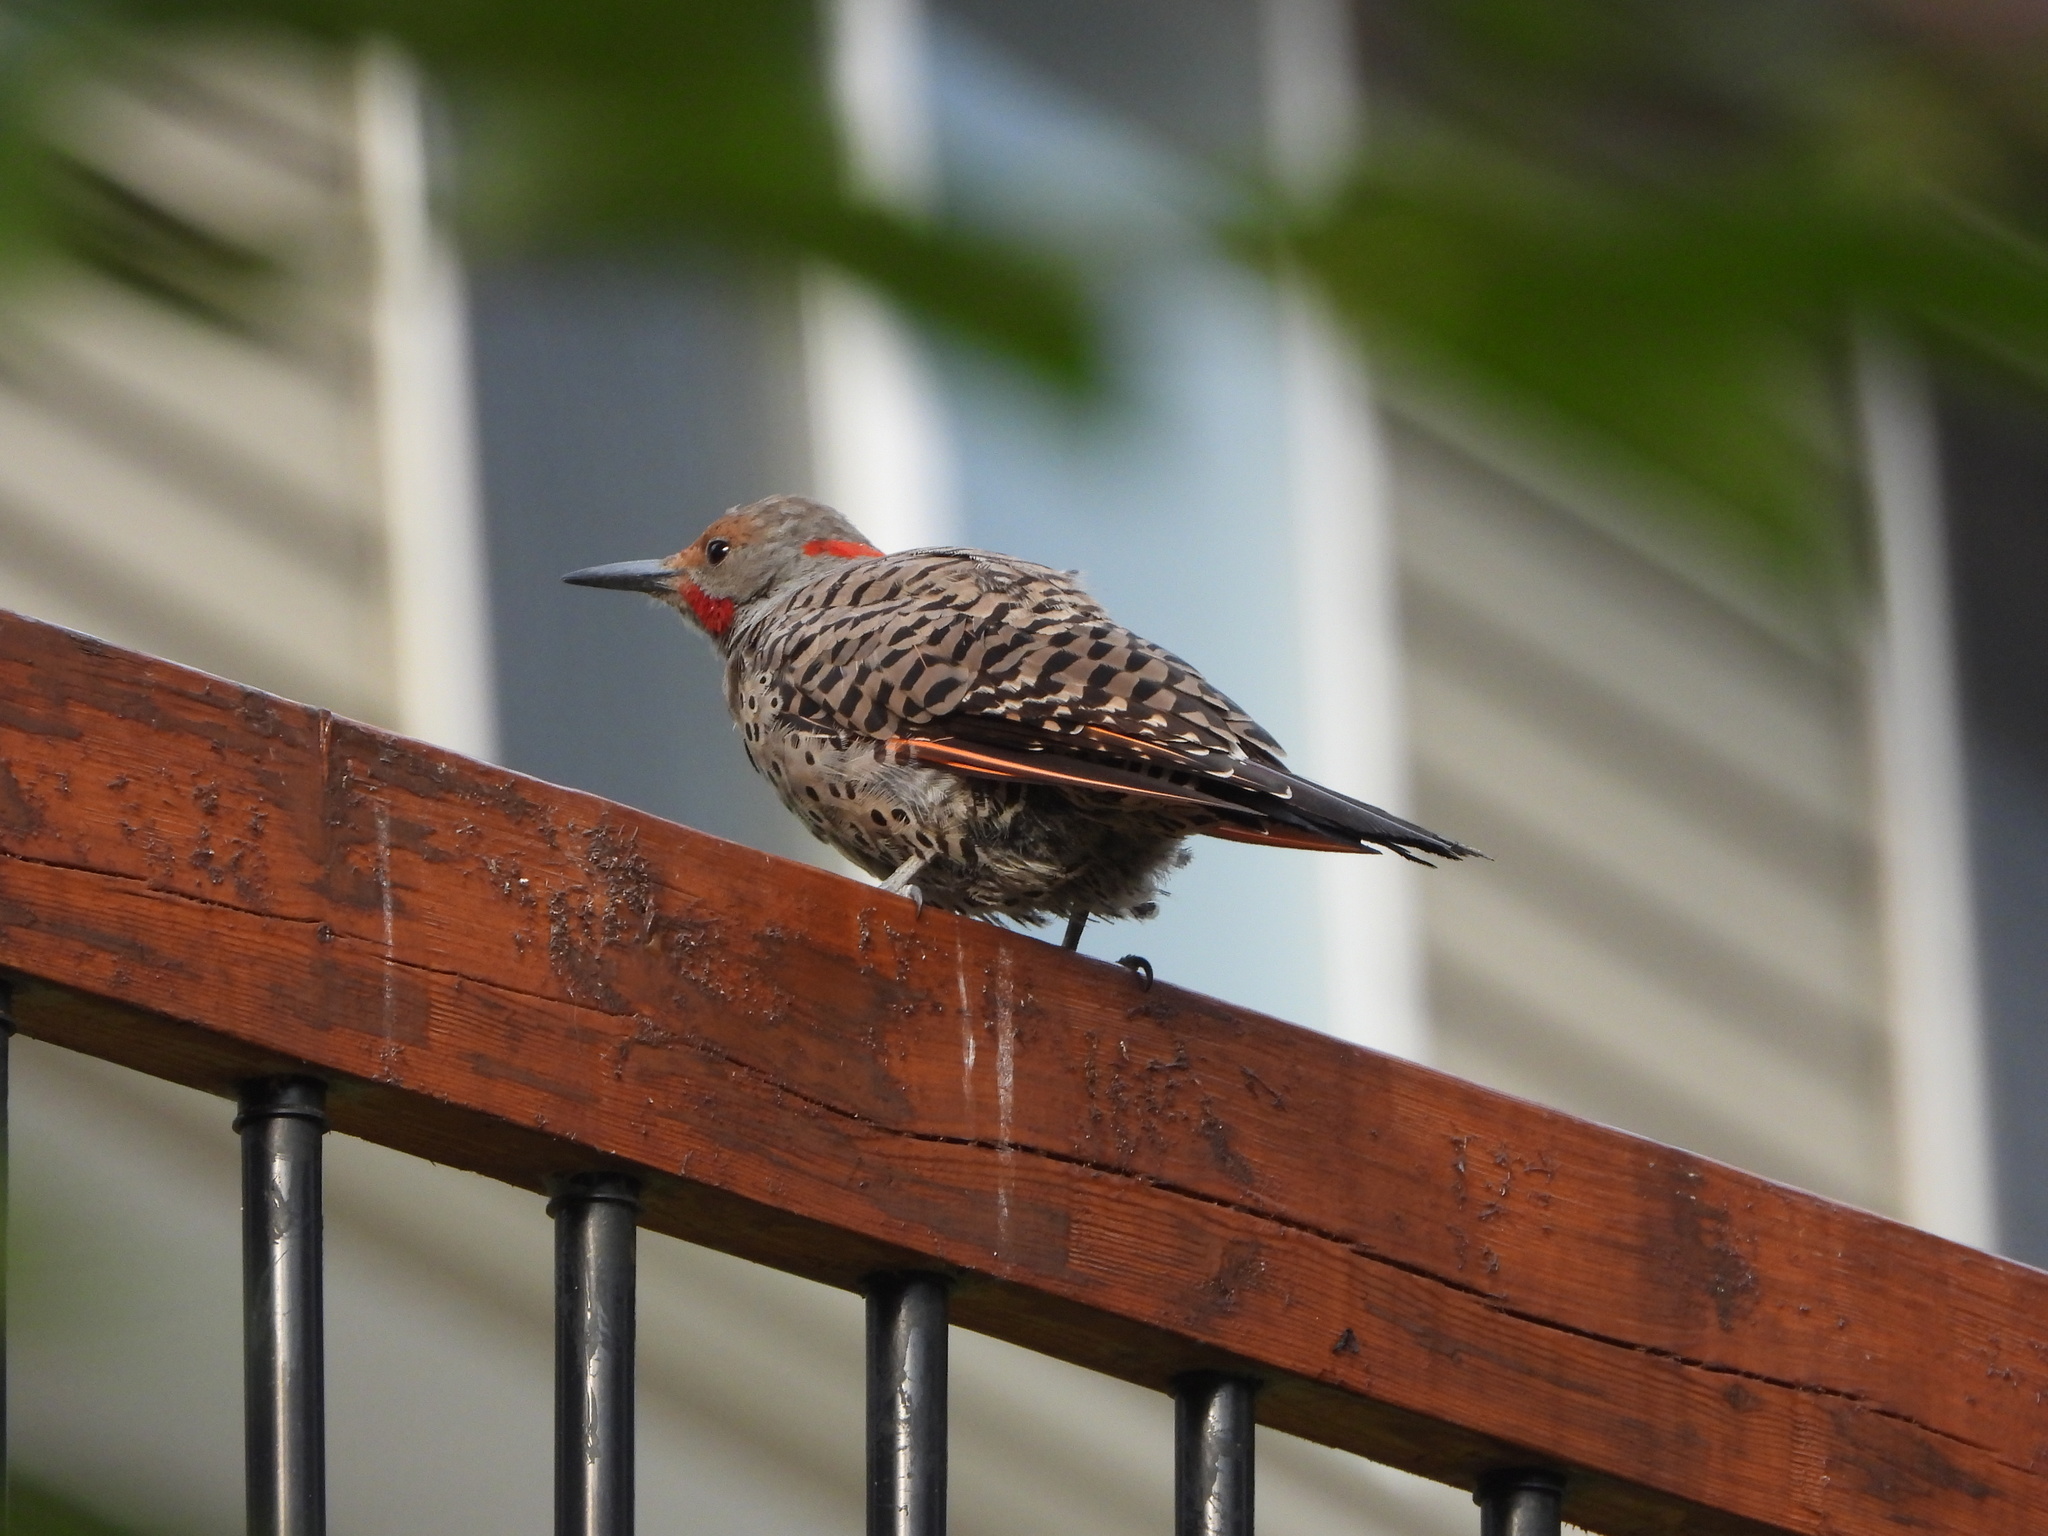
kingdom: Animalia
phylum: Chordata
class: Aves
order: Piciformes
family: Picidae
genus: Colaptes
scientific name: Colaptes
